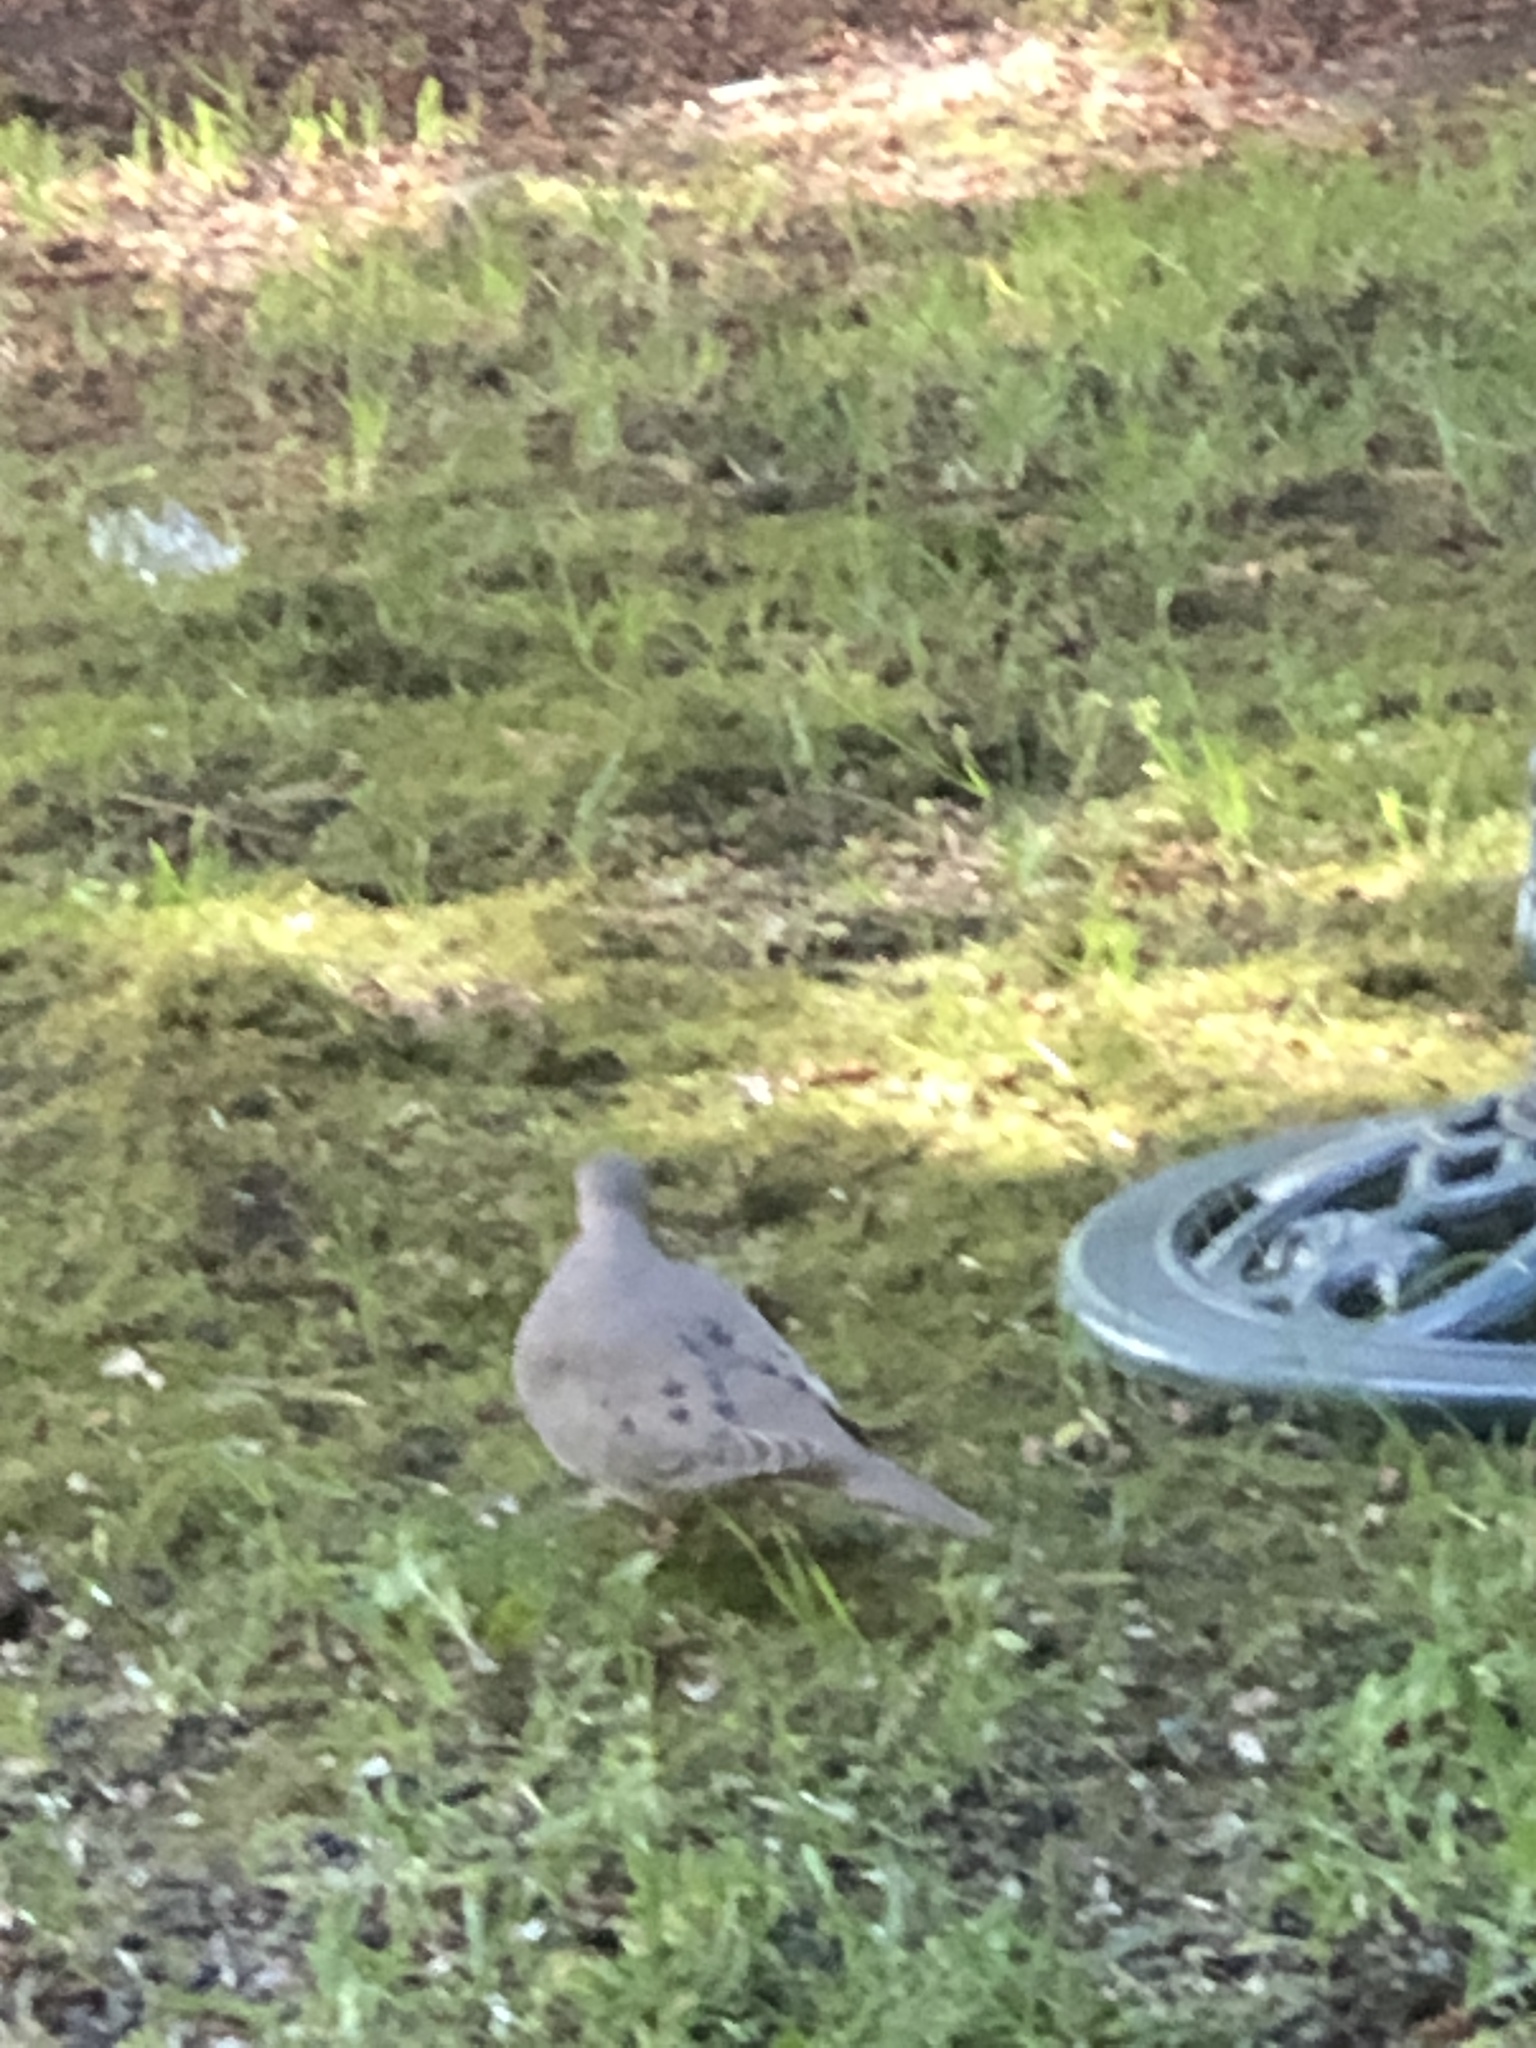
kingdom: Animalia
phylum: Chordata
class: Aves
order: Columbiformes
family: Columbidae
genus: Zenaida
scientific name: Zenaida macroura
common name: Mourning dove
